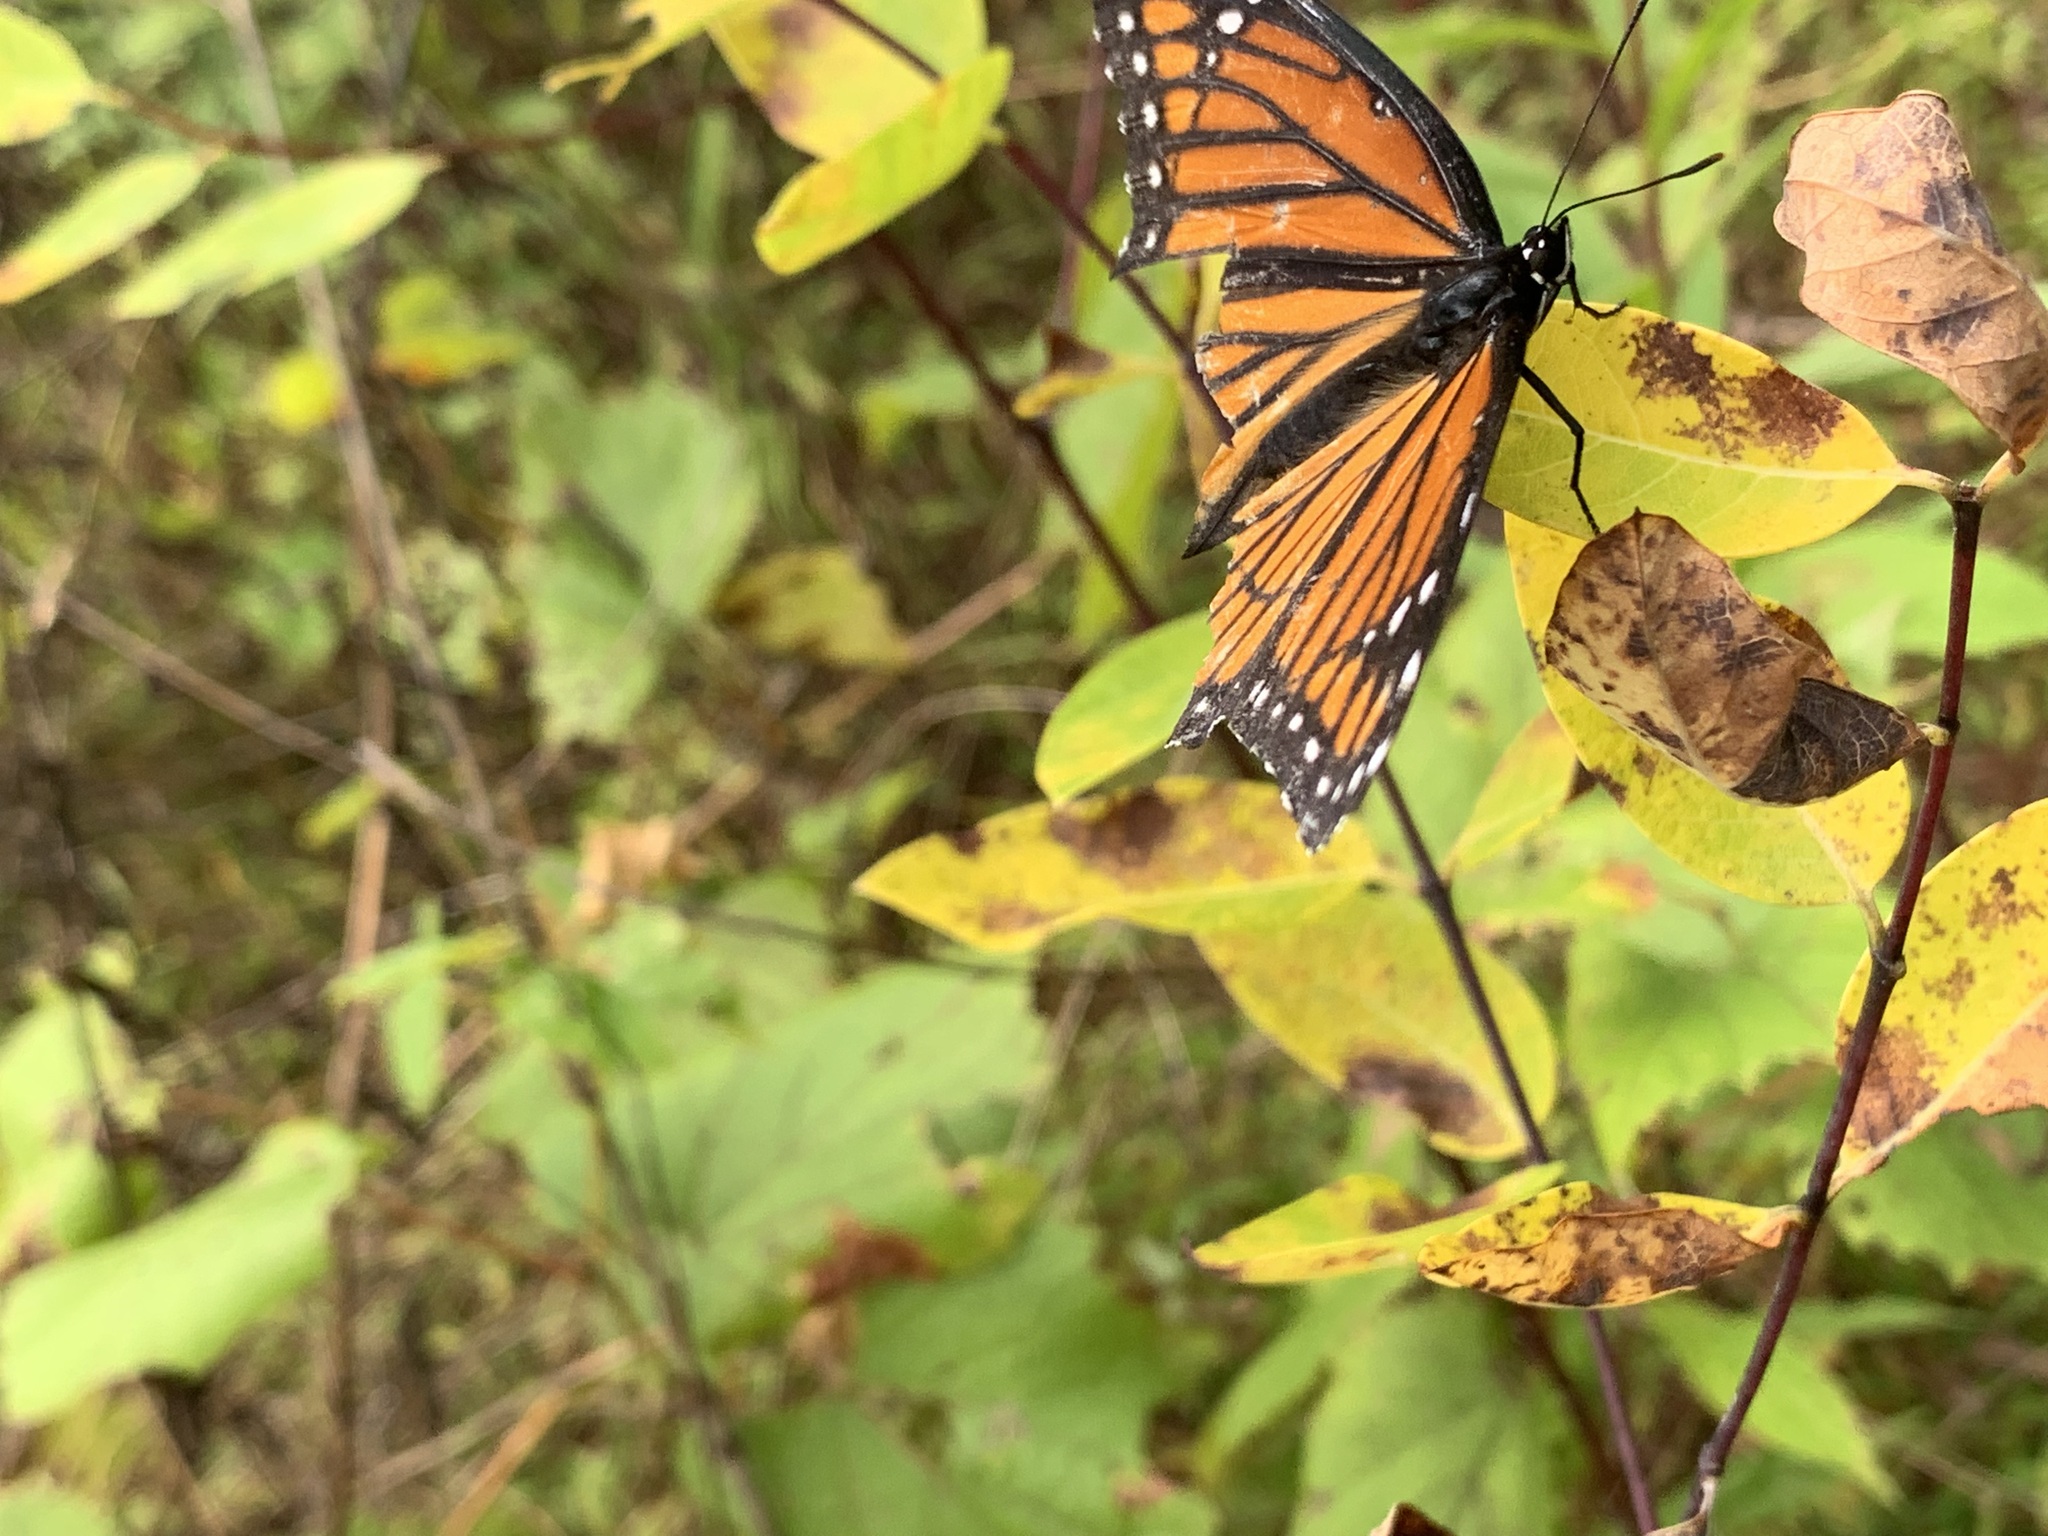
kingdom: Animalia
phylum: Arthropoda
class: Insecta
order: Lepidoptera
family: Nymphalidae
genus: Limenitis
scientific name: Limenitis archippus
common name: Viceroy
